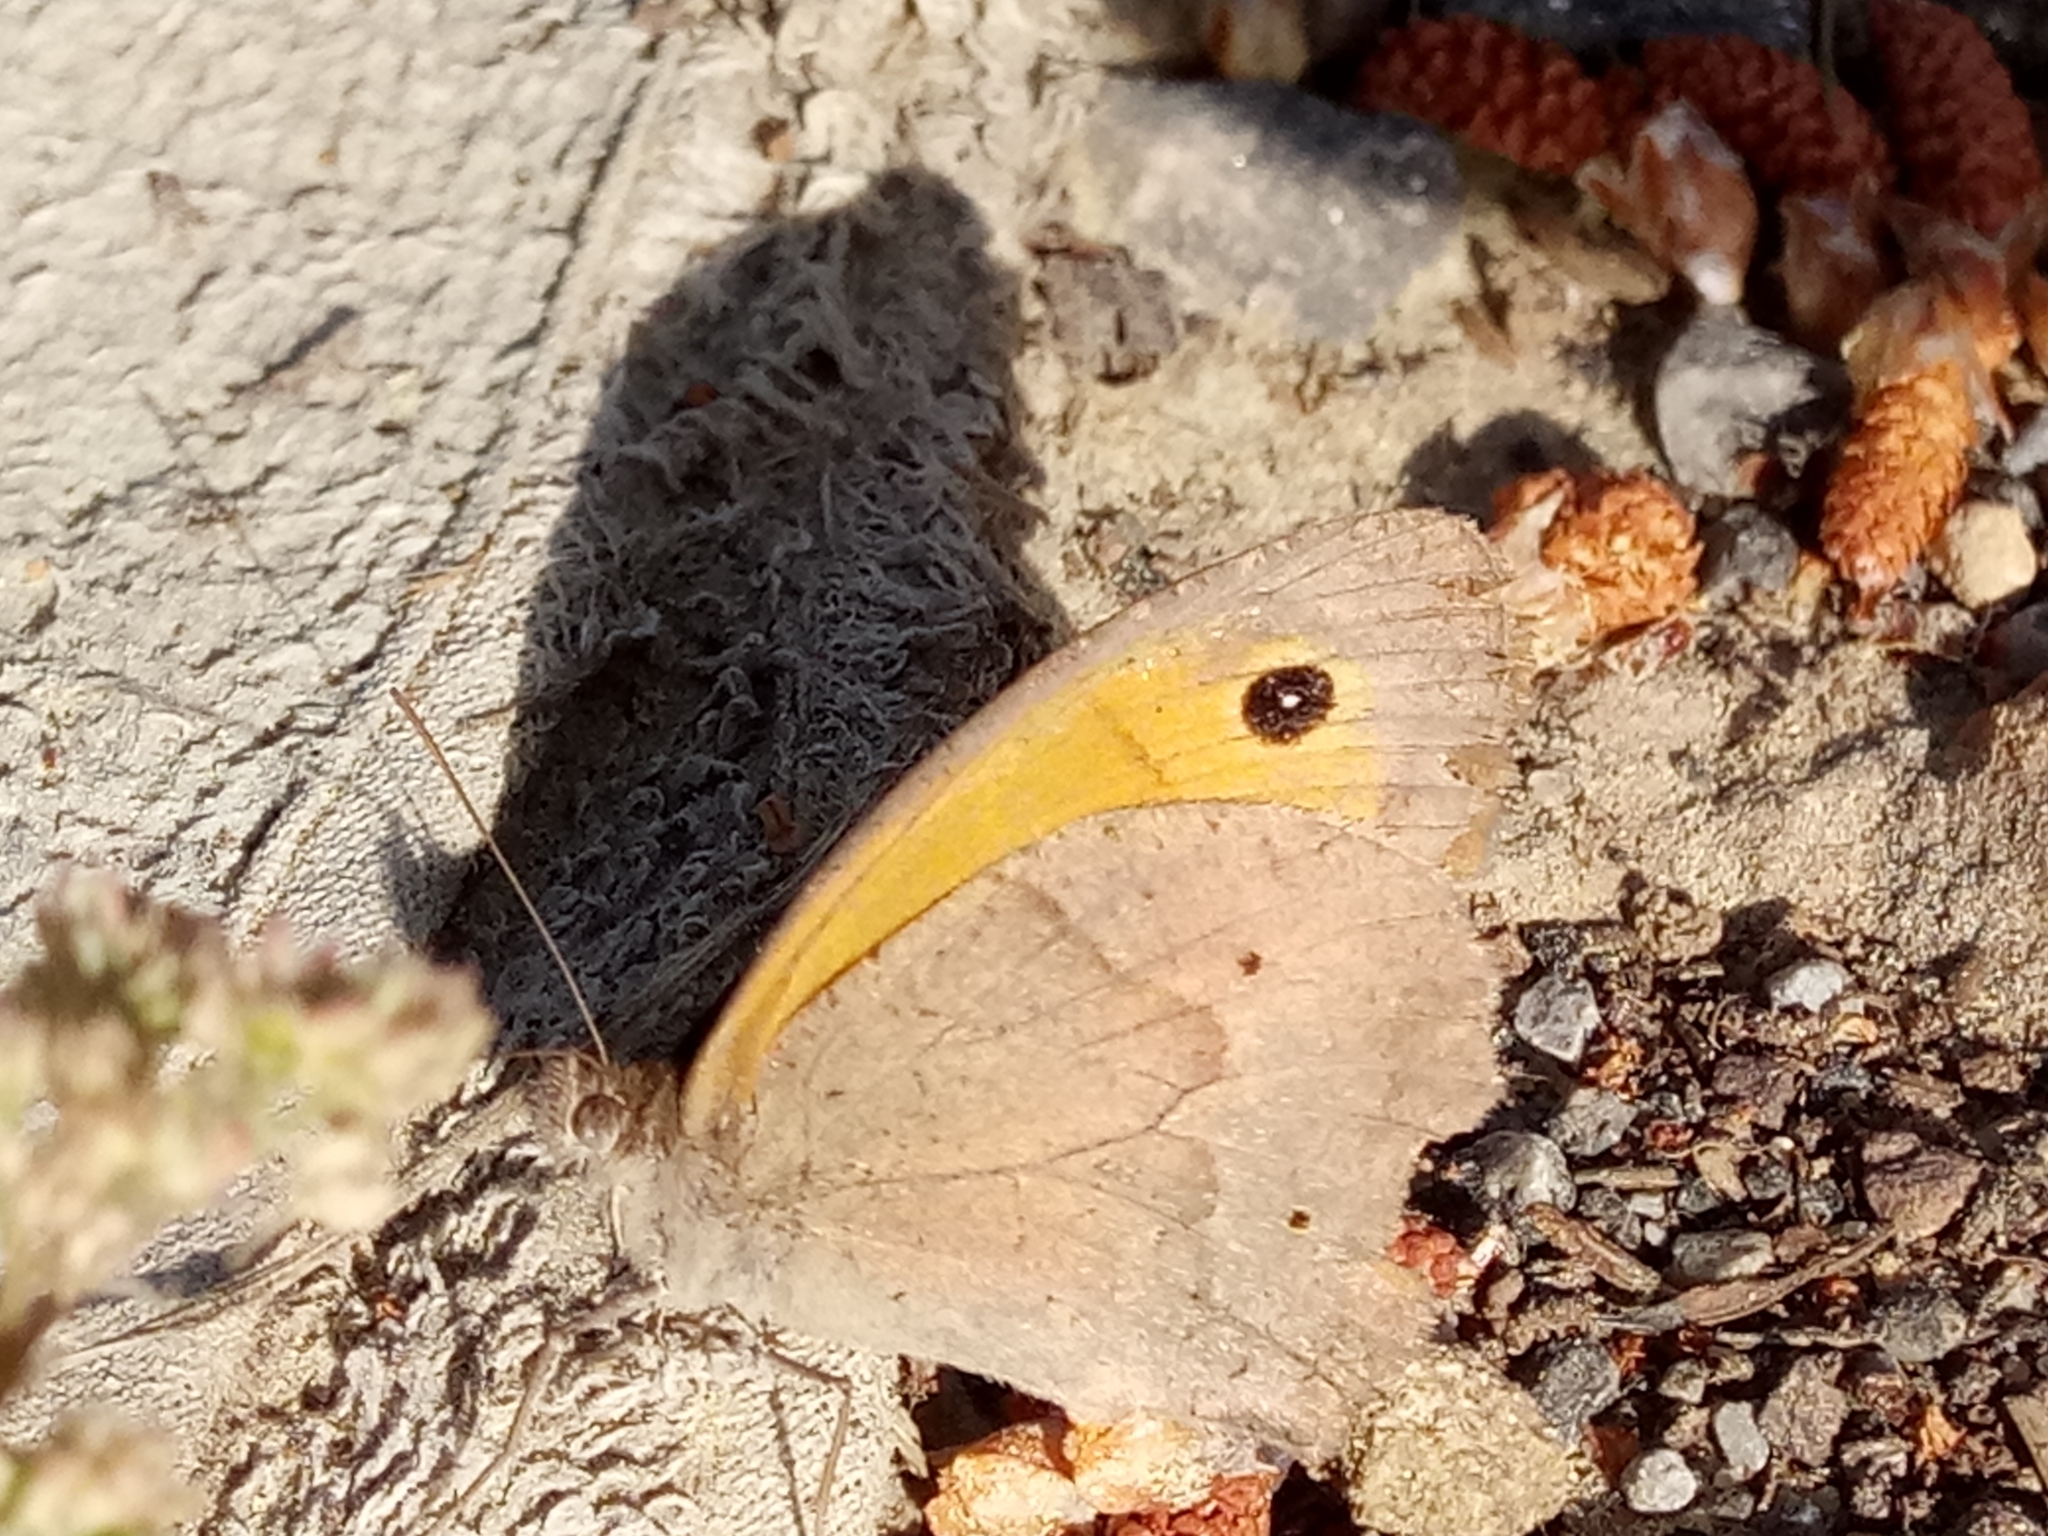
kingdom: Animalia
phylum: Arthropoda
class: Insecta
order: Lepidoptera
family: Nymphalidae
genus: Maniola
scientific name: Maniola jurtina
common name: Meadow brown
